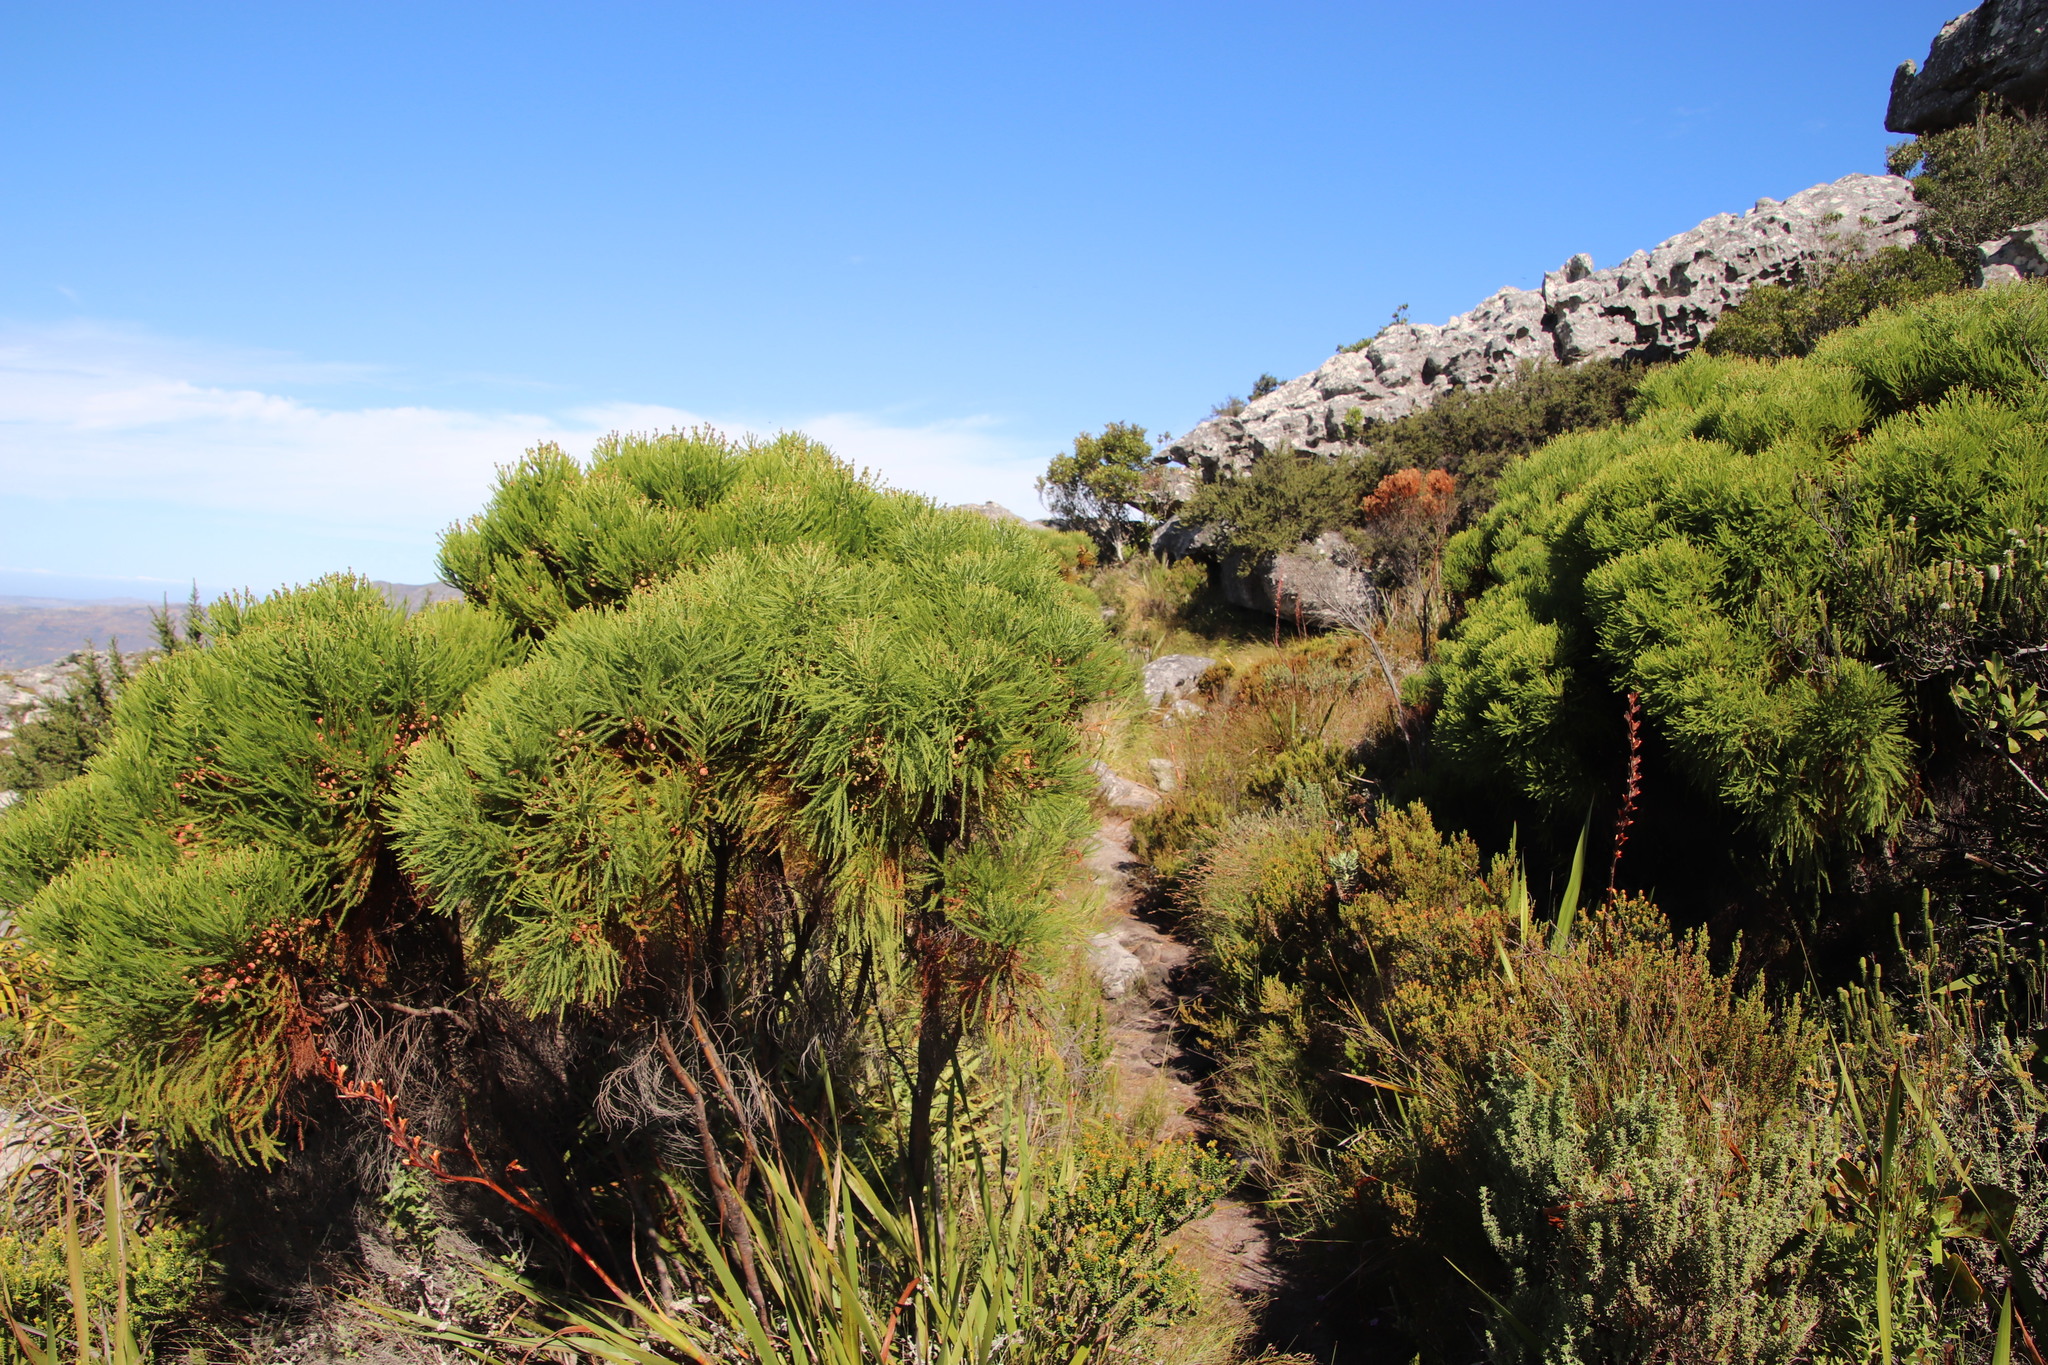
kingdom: Plantae
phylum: Tracheophyta
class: Magnoliopsida
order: Bruniales
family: Bruniaceae
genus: Berzelia
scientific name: Berzelia lanuginosa
